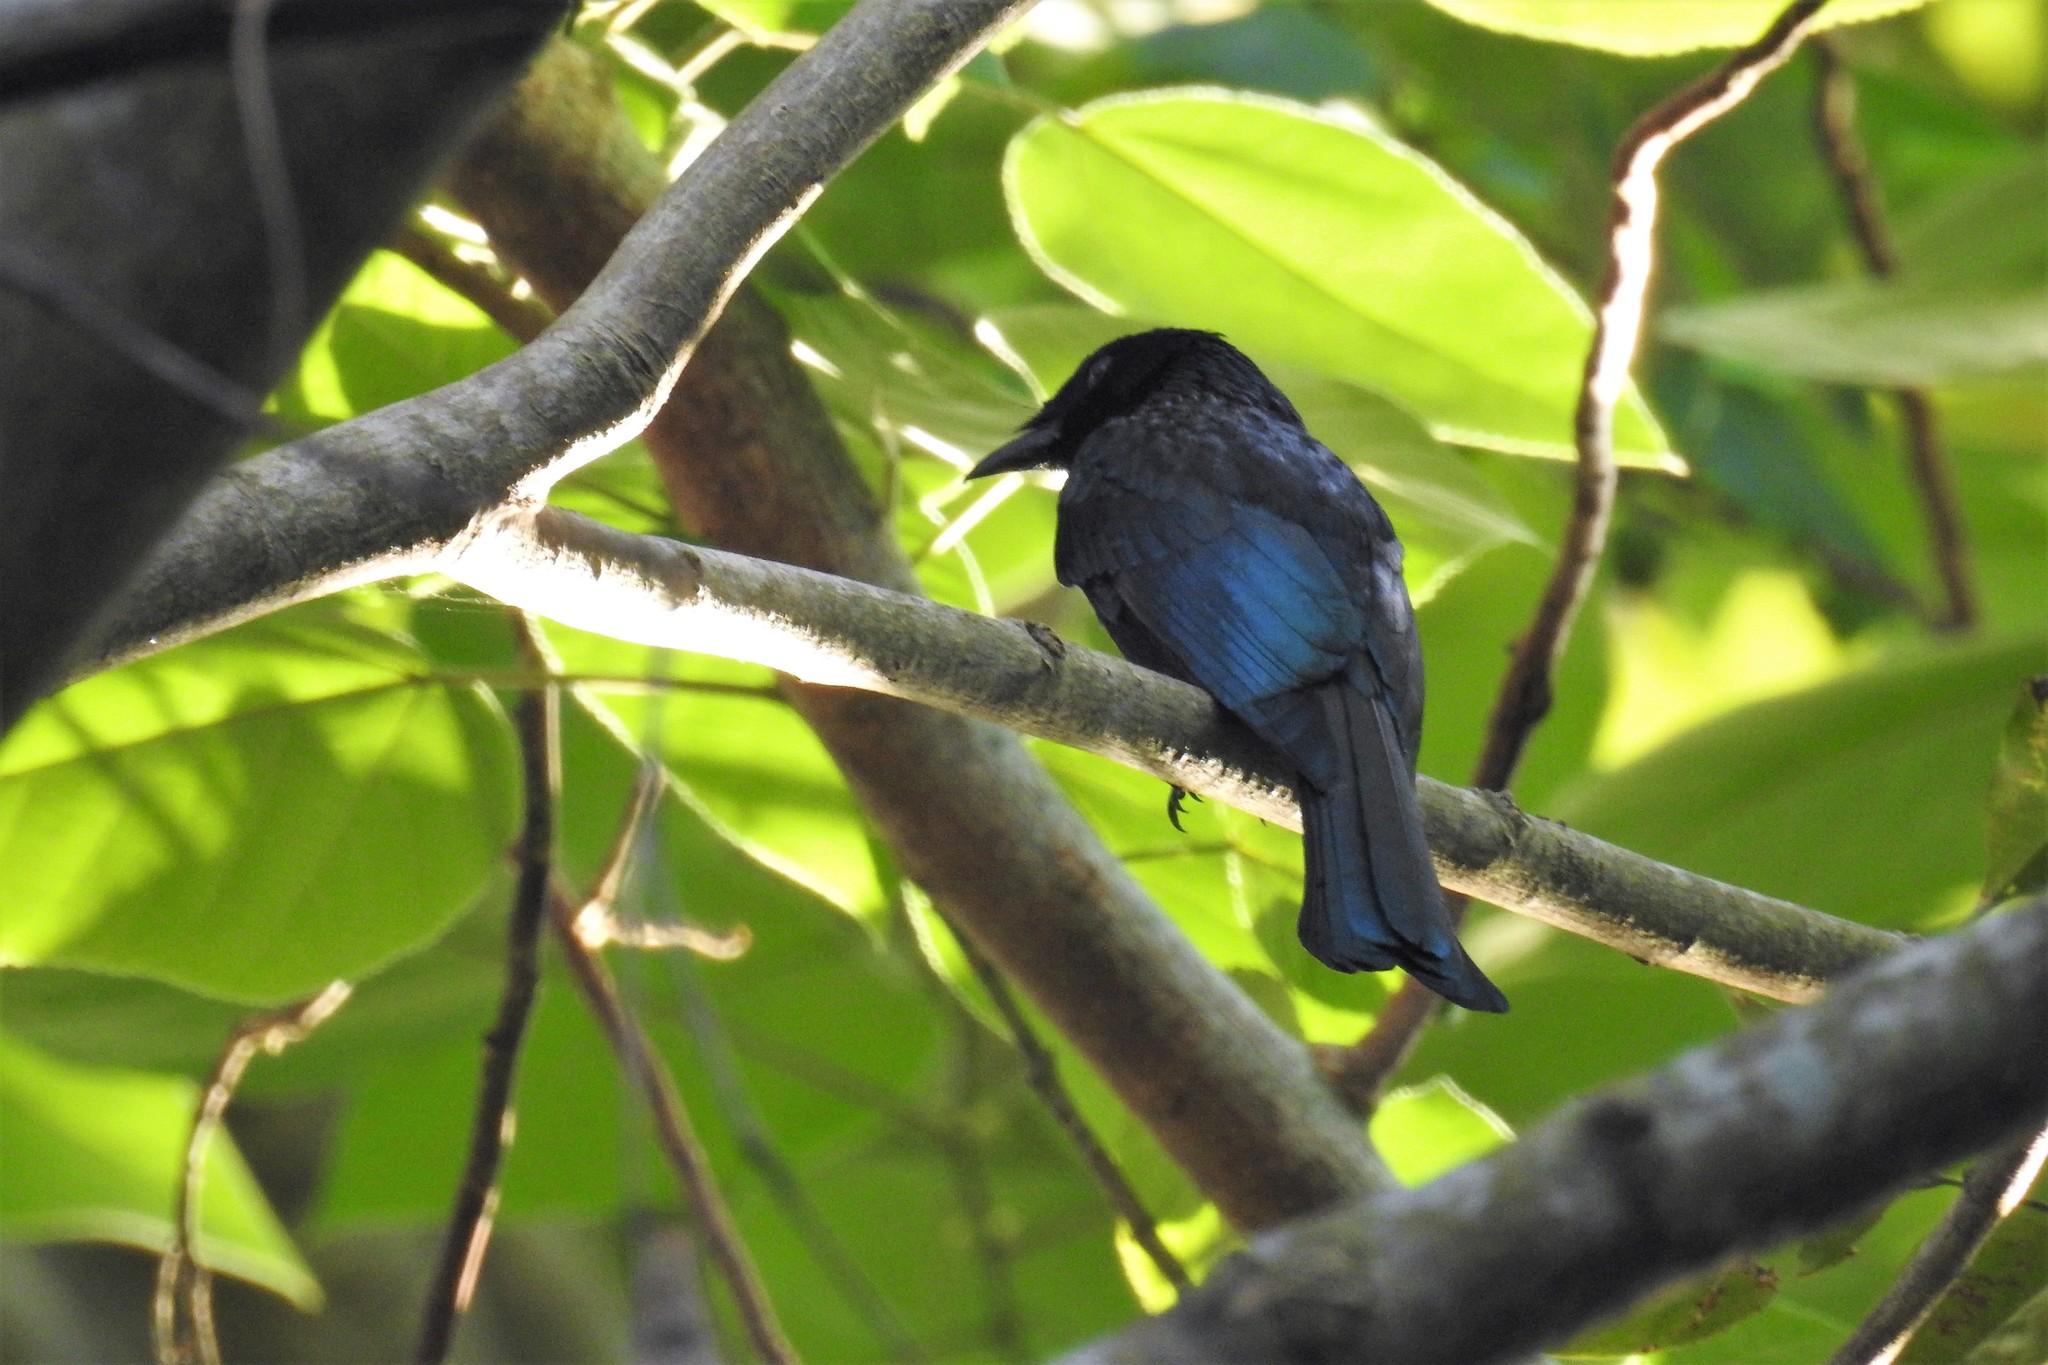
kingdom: Animalia
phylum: Chordata
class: Aves
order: Passeriformes
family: Dicruridae
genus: Dicrurus
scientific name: Dicrurus balicassius
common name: Balicassiao
